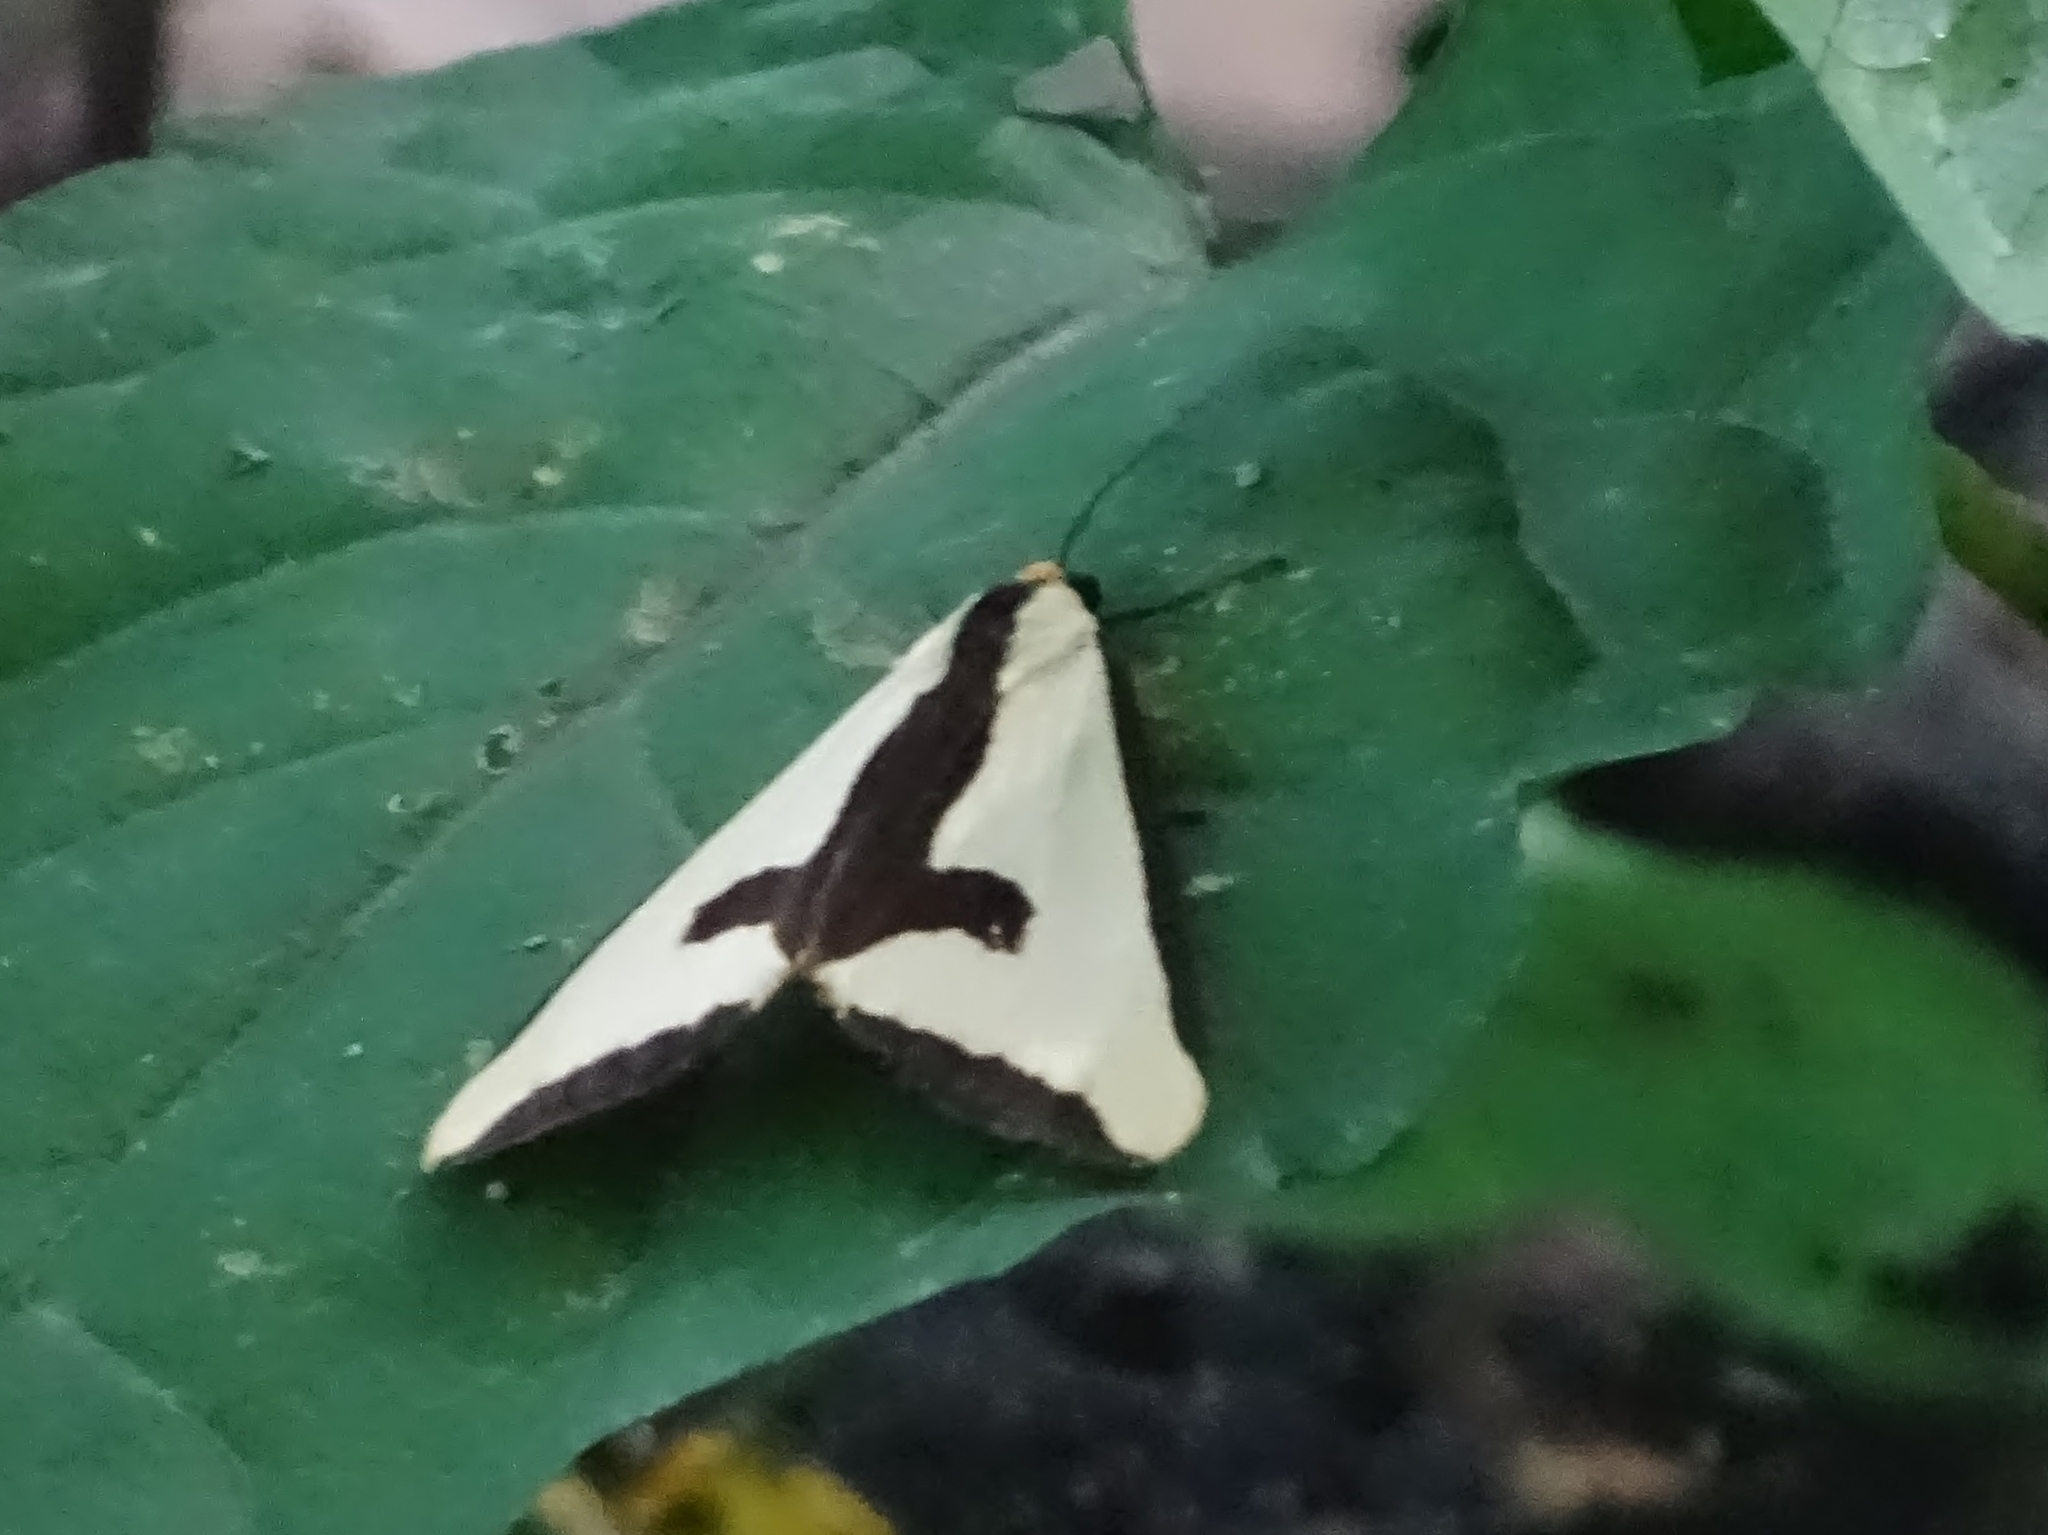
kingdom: Animalia
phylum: Arthropoda
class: Insecta
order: Lepidoptera
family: Erebidae
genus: Haploa
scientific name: Haploa clymene
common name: Clymene moth
